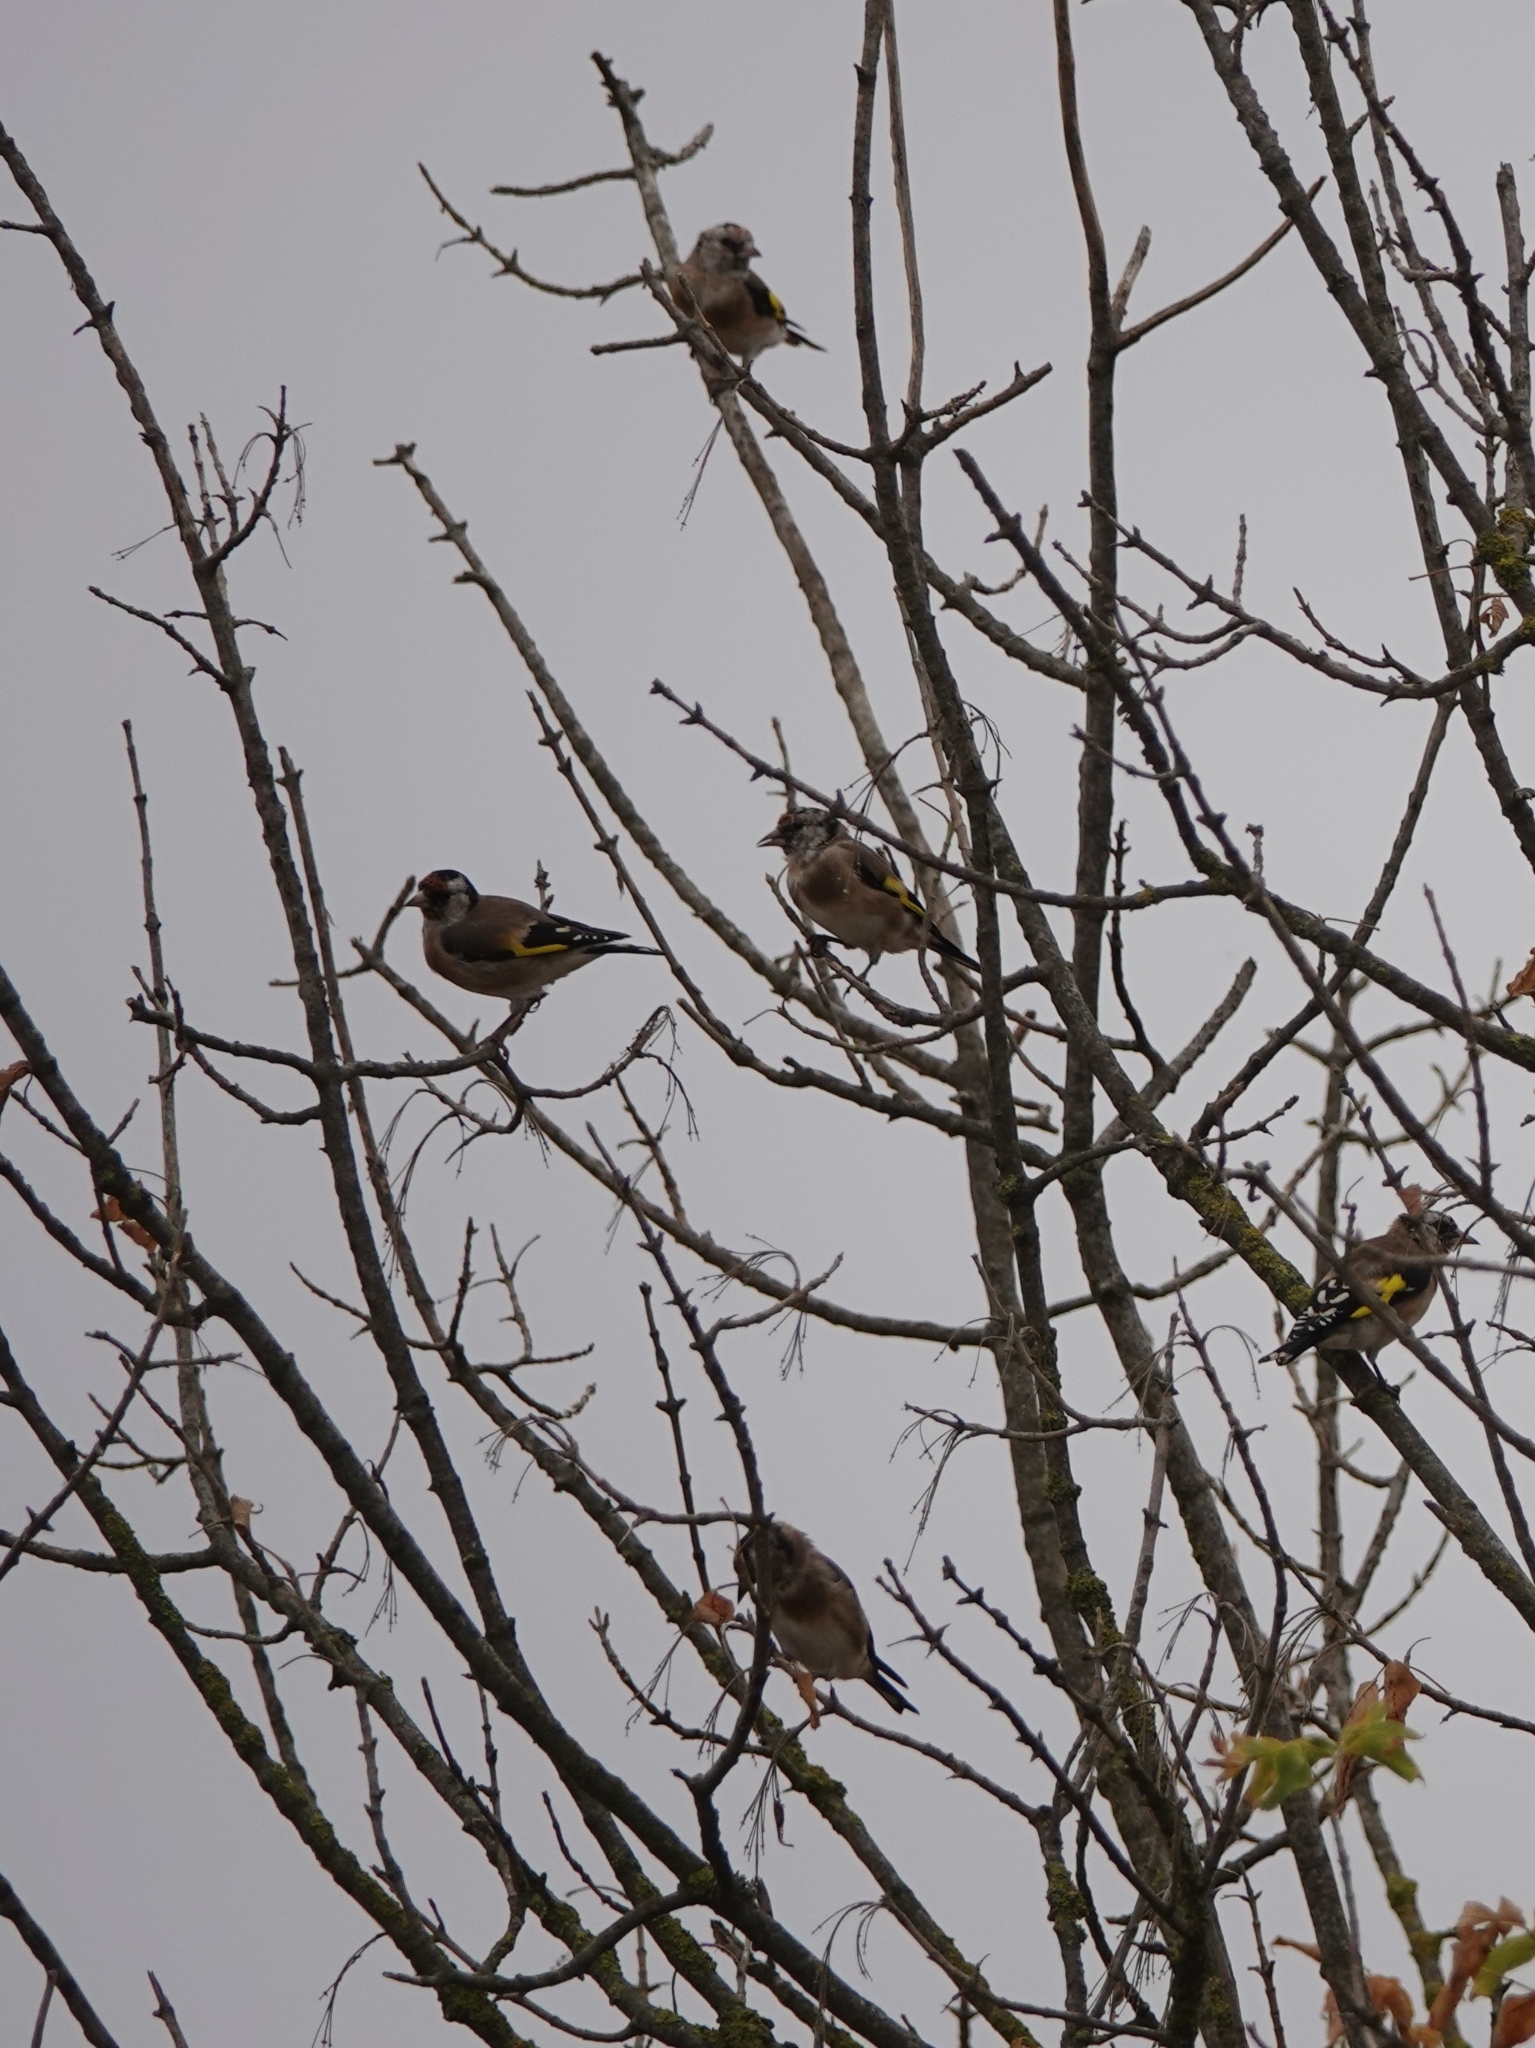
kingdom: Animalia
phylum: Chordata
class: Aves
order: Passeriformes
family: Fringillidae
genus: Carduelis
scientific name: Carduelis carduelis
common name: European goldfinch
